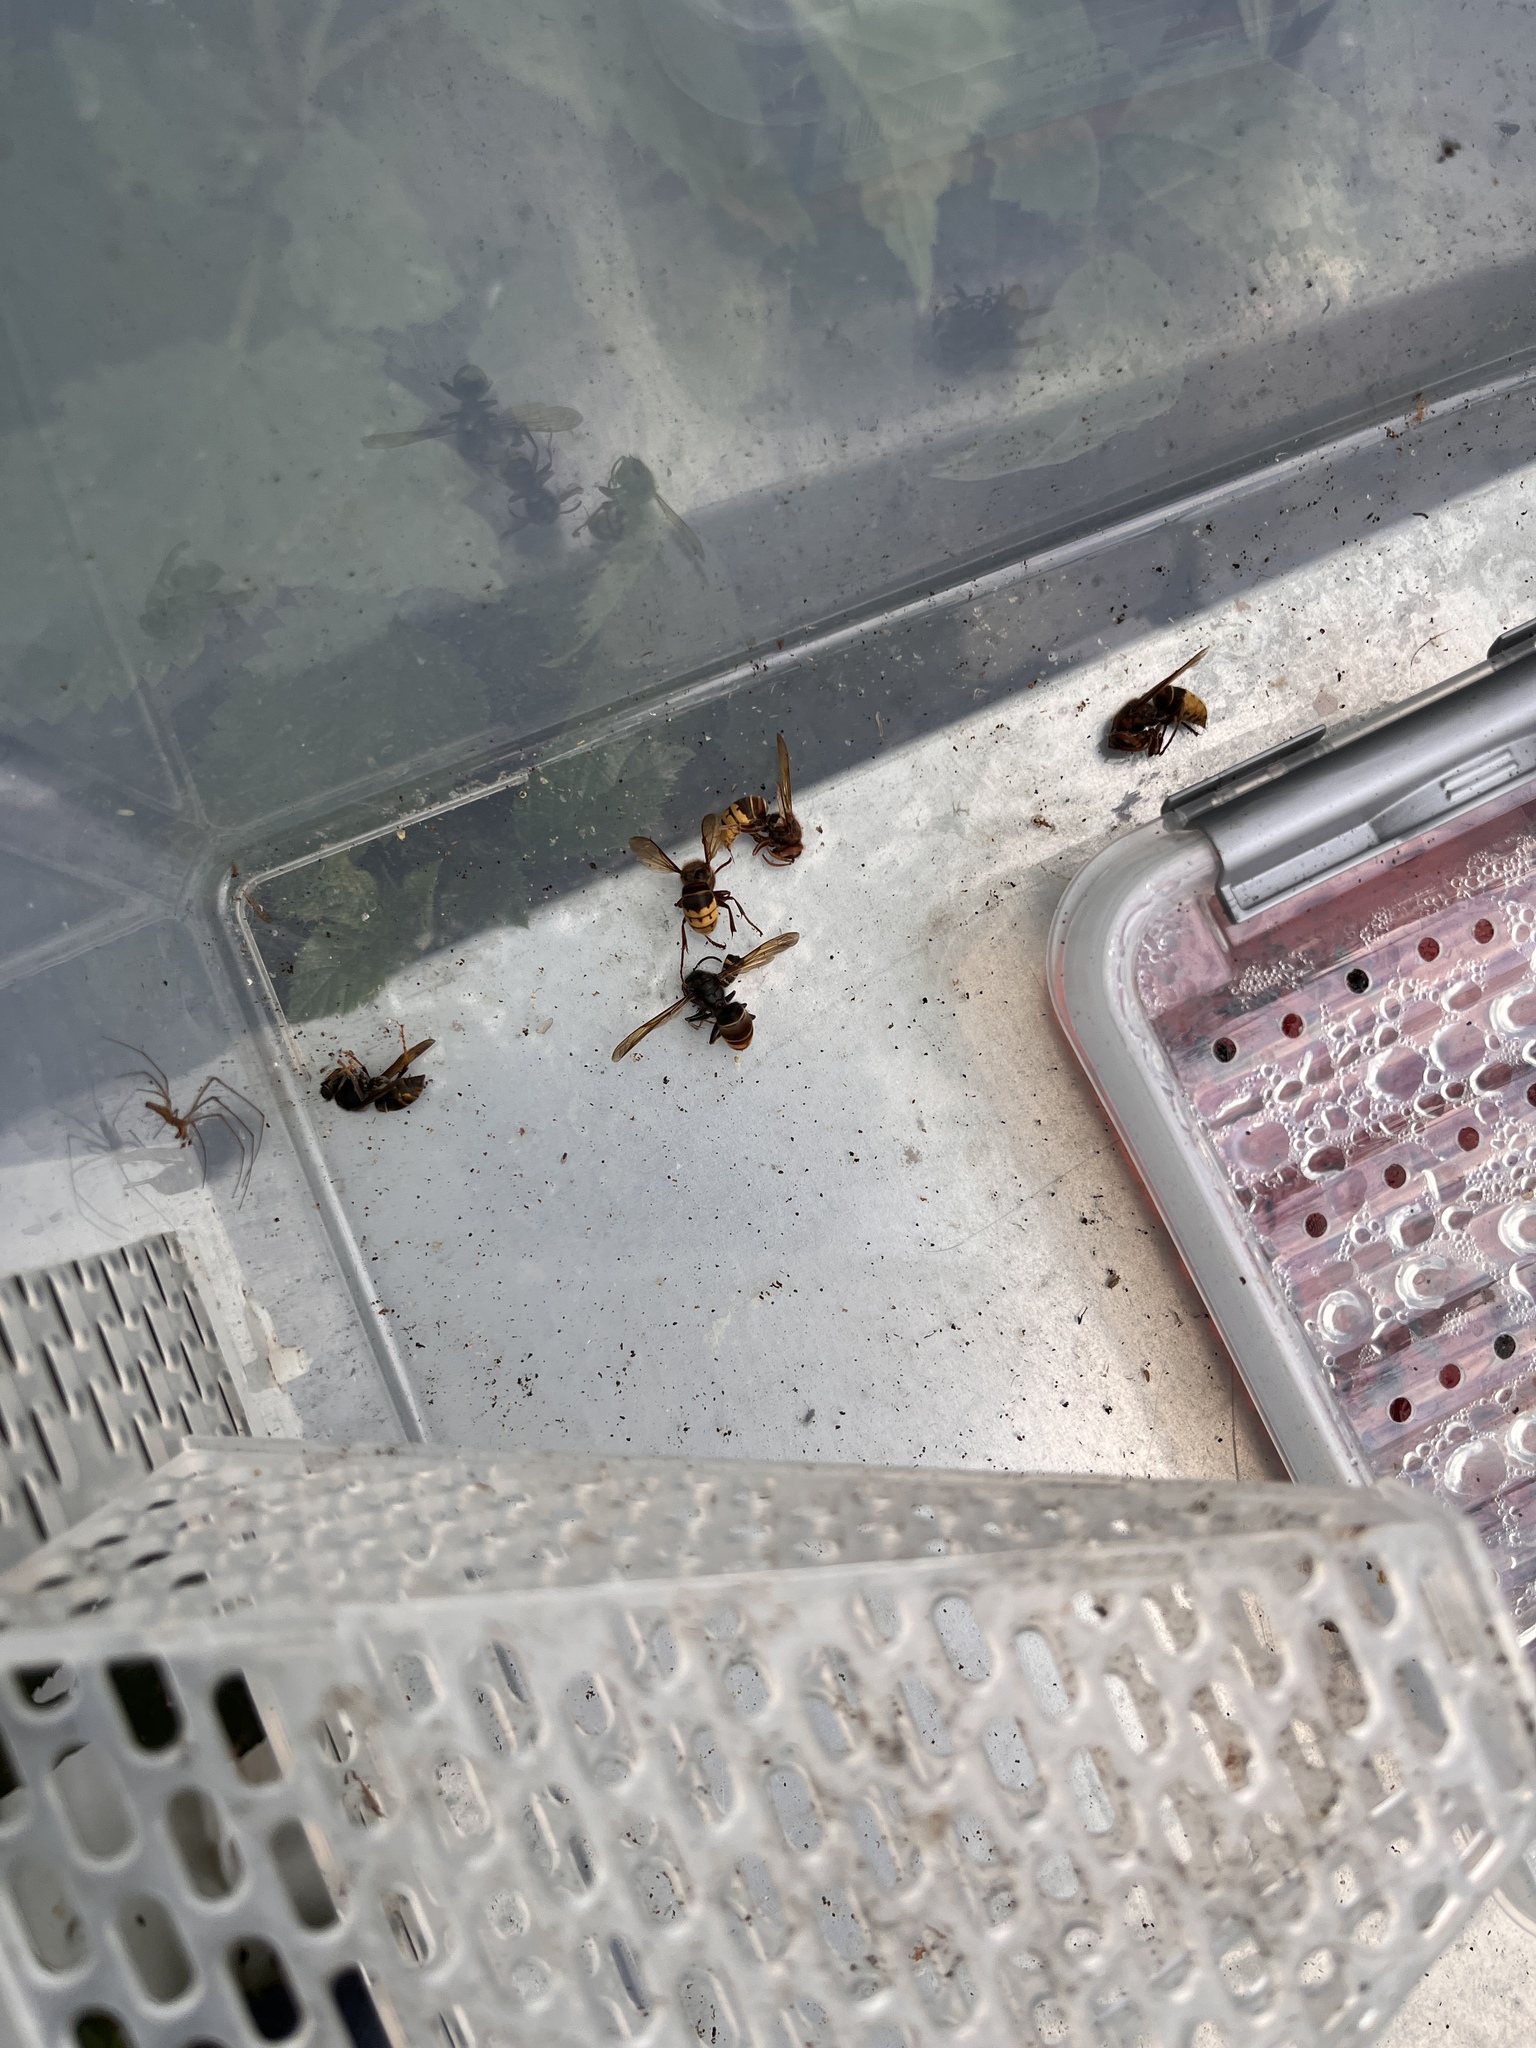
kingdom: Animalia
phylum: Arthropoda
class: Insecta
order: Hymenoptera
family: Vespidae
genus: Vespa
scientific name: Vespa velutina
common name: Asian hornet
